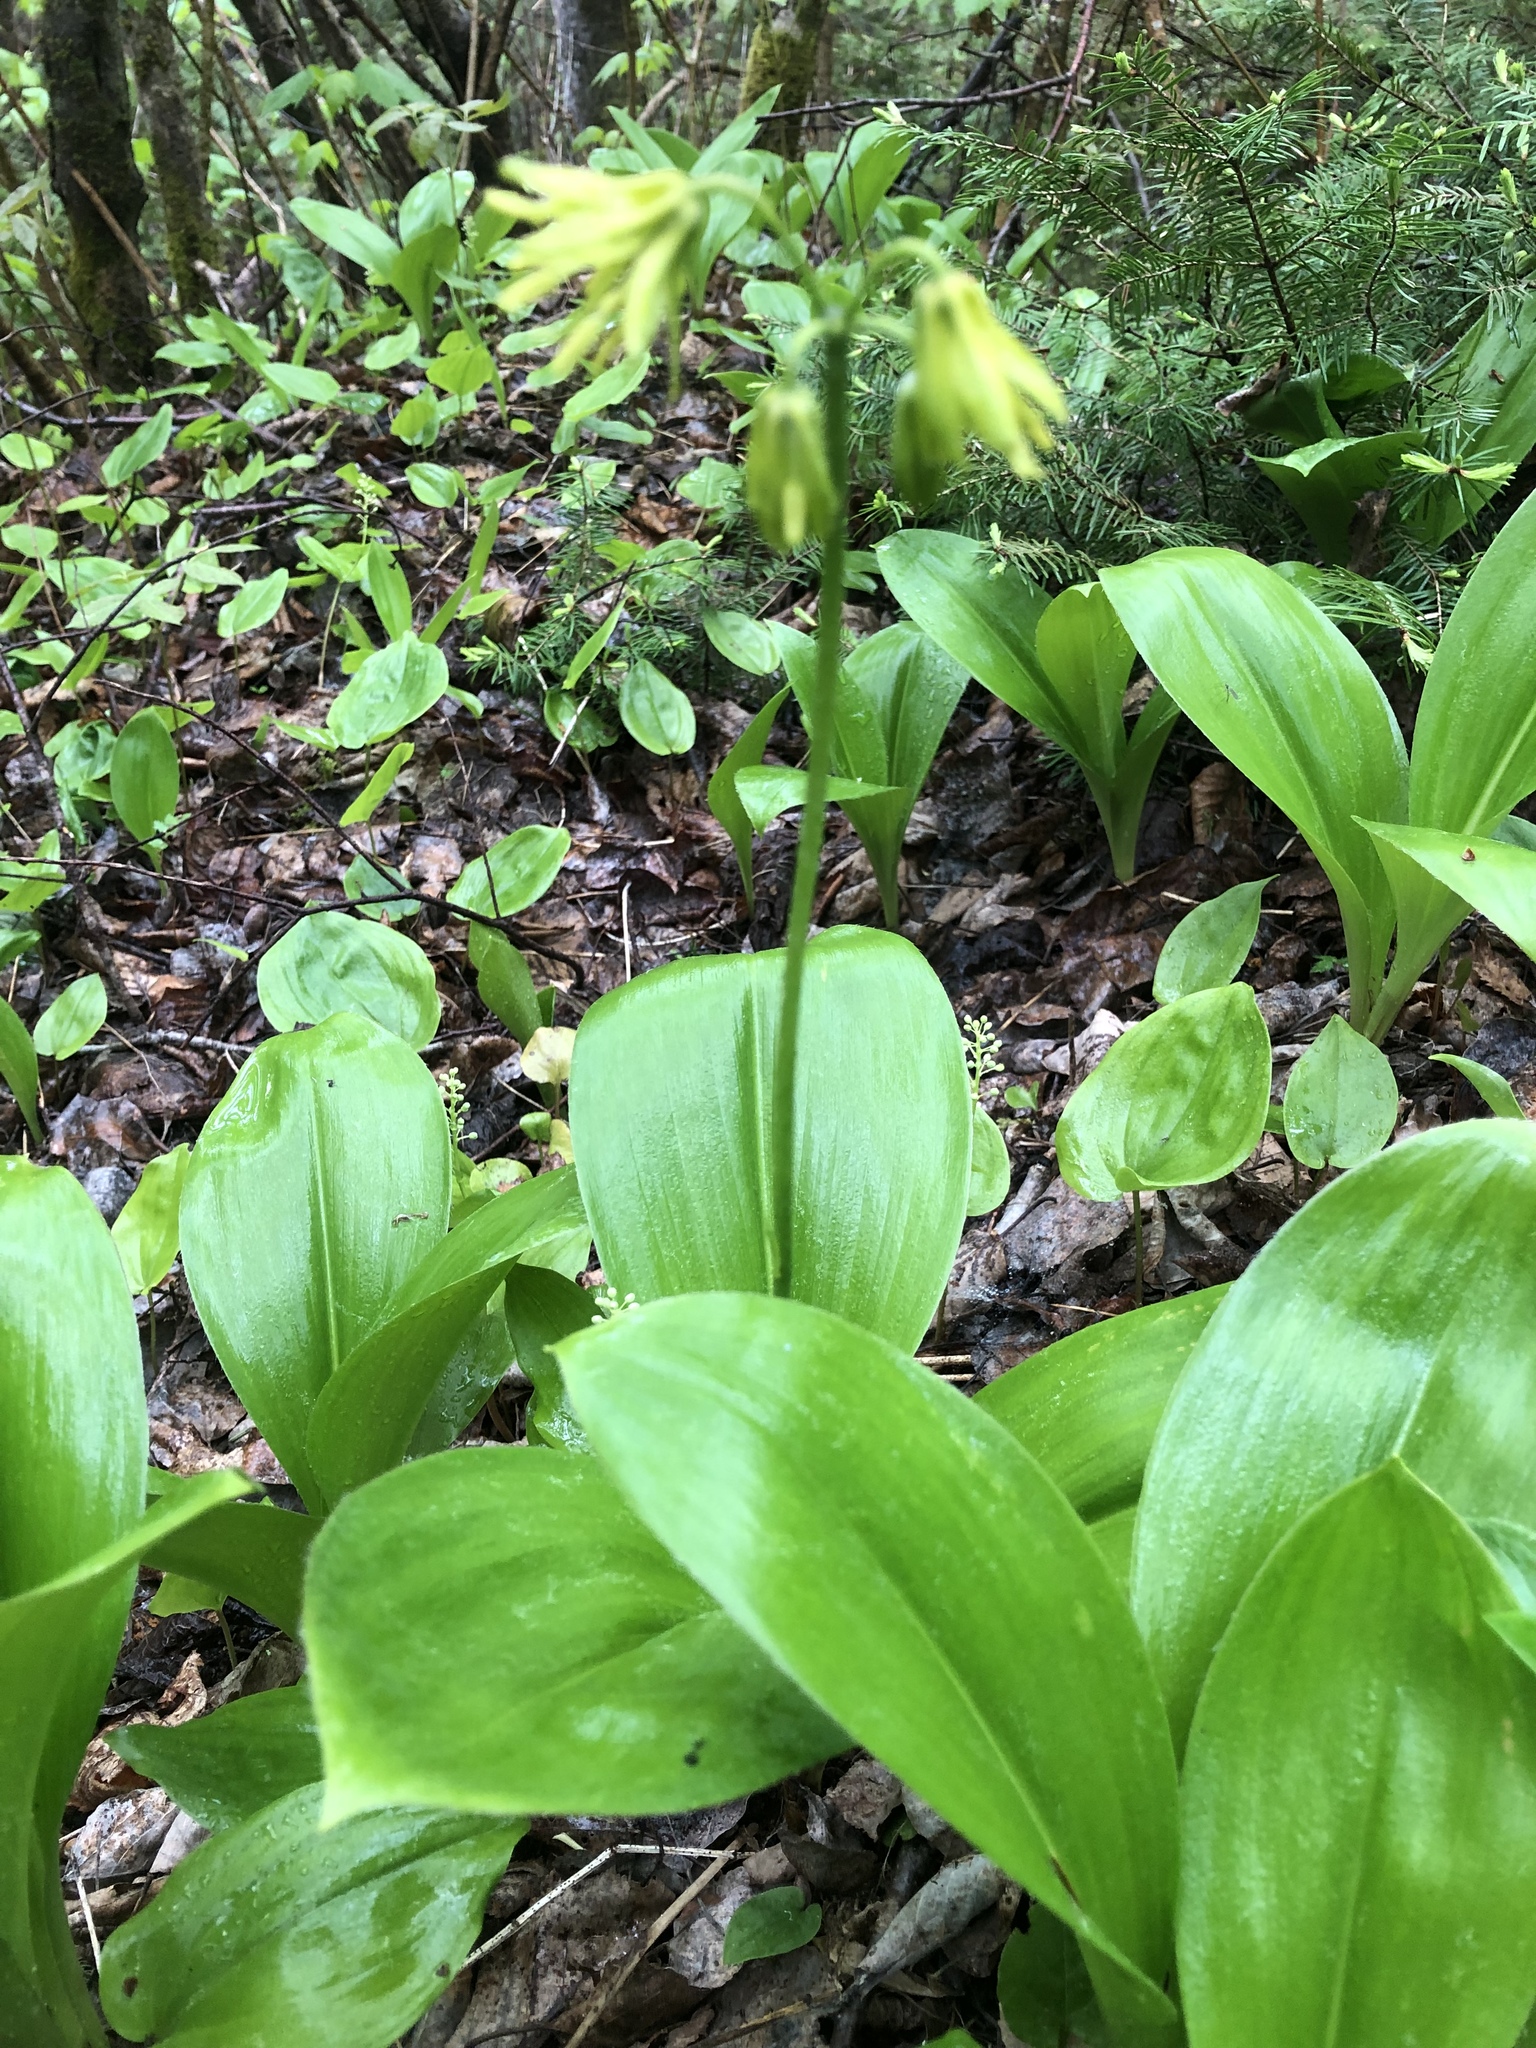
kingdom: Plantae
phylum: Tracheophyta
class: Liliopsida
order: Liliales
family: Liliaceae
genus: Clintonia
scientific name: Clintonia borealis
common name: Yellow clintonia
